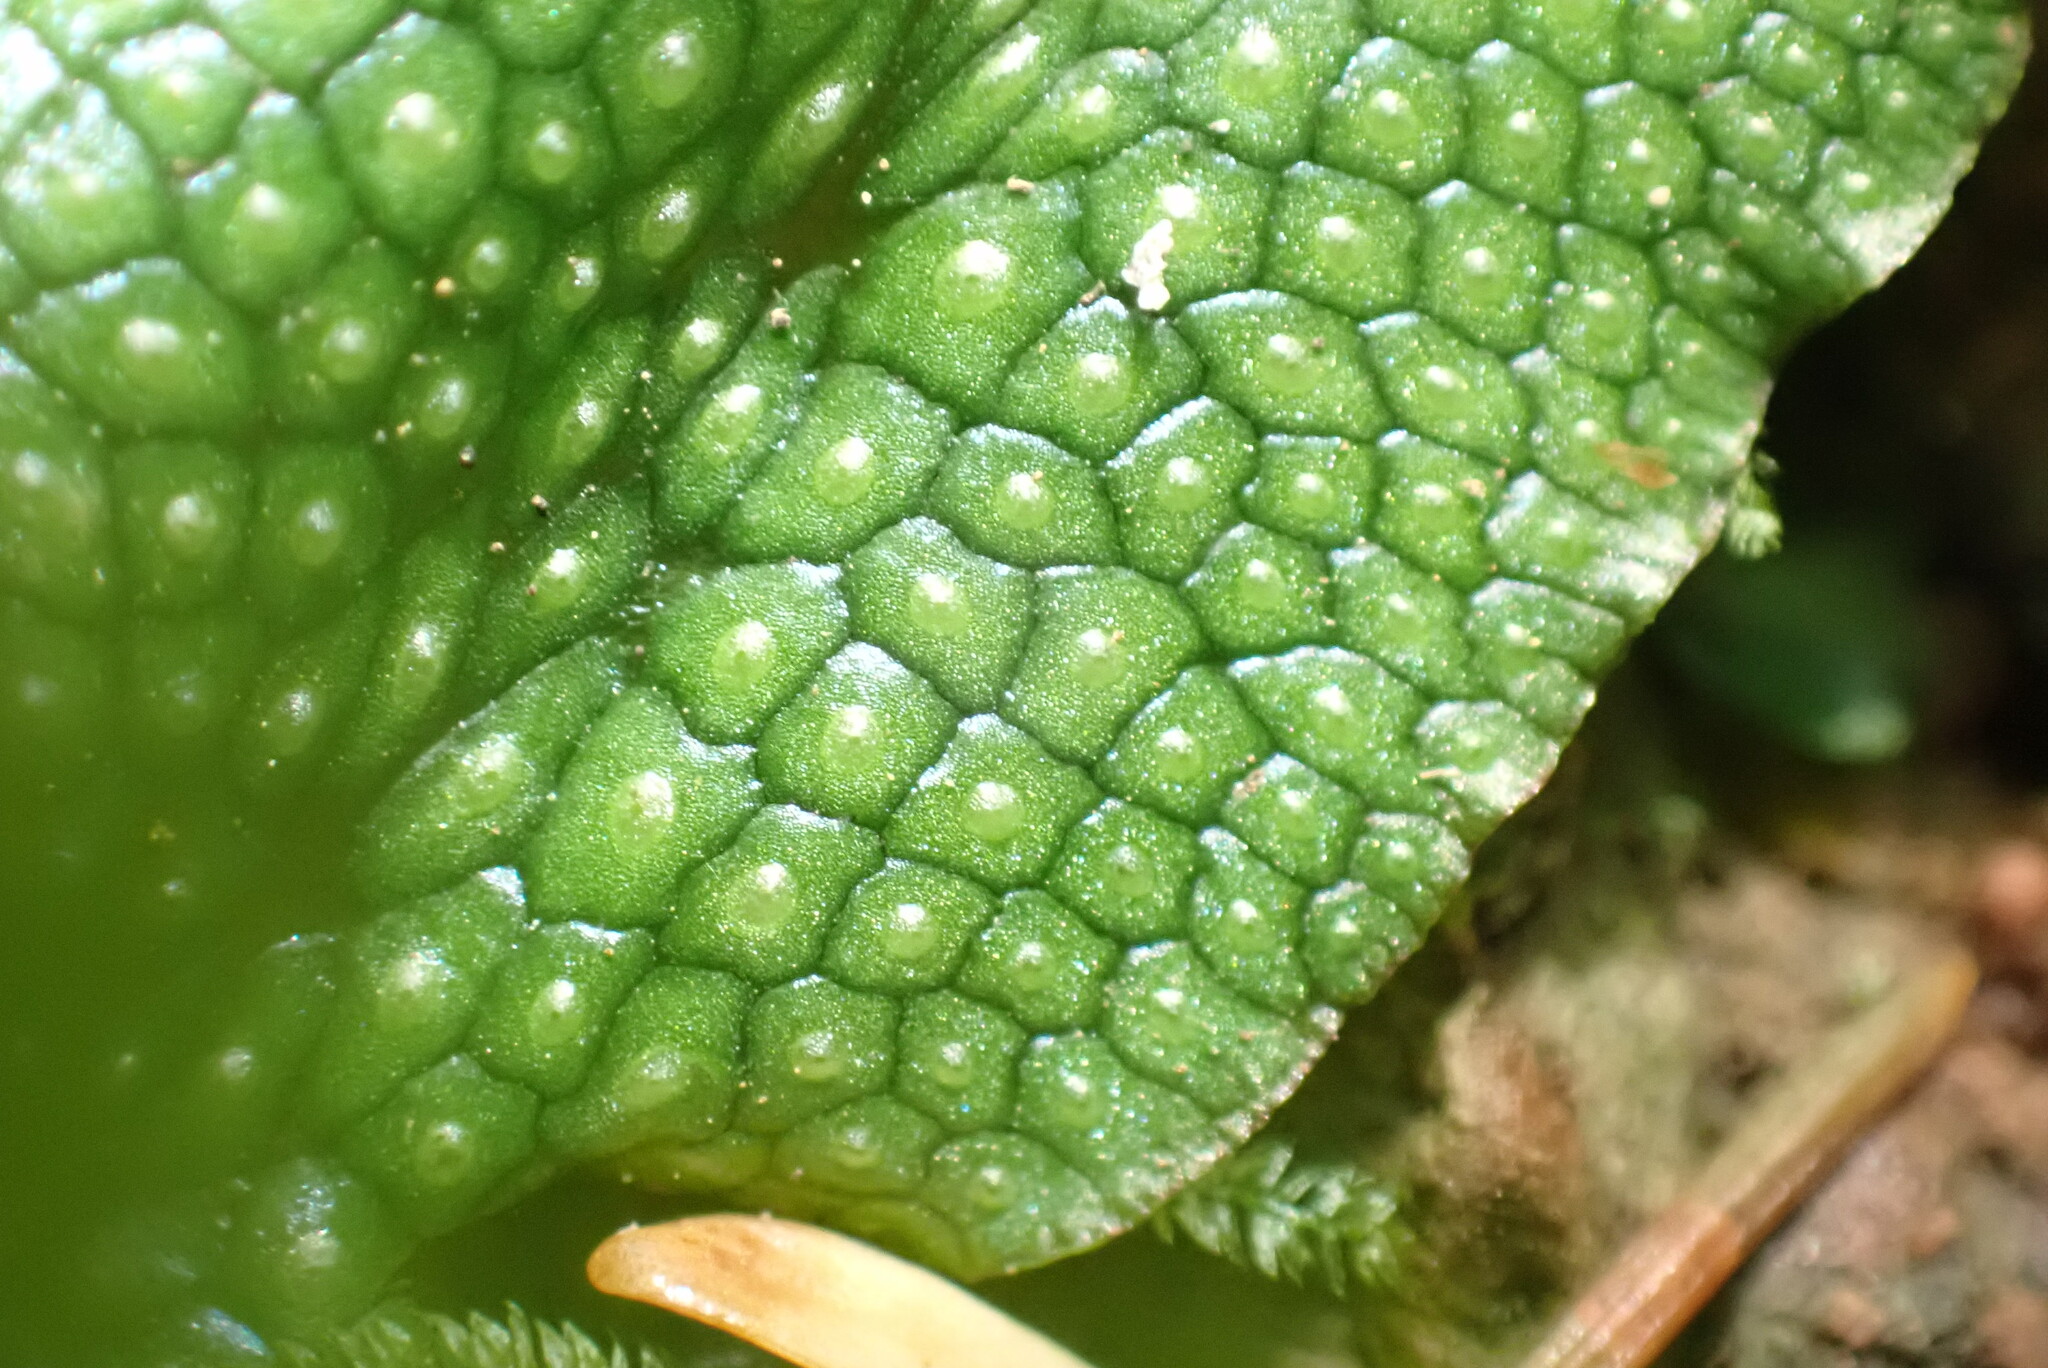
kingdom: Plantae
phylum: Marchantiophyta
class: Marchantiopsida
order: Marchantiales
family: Conocephalaceae
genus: Conocephalum
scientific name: Conocephalum salebrosum
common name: Cat-tongue liverwort
